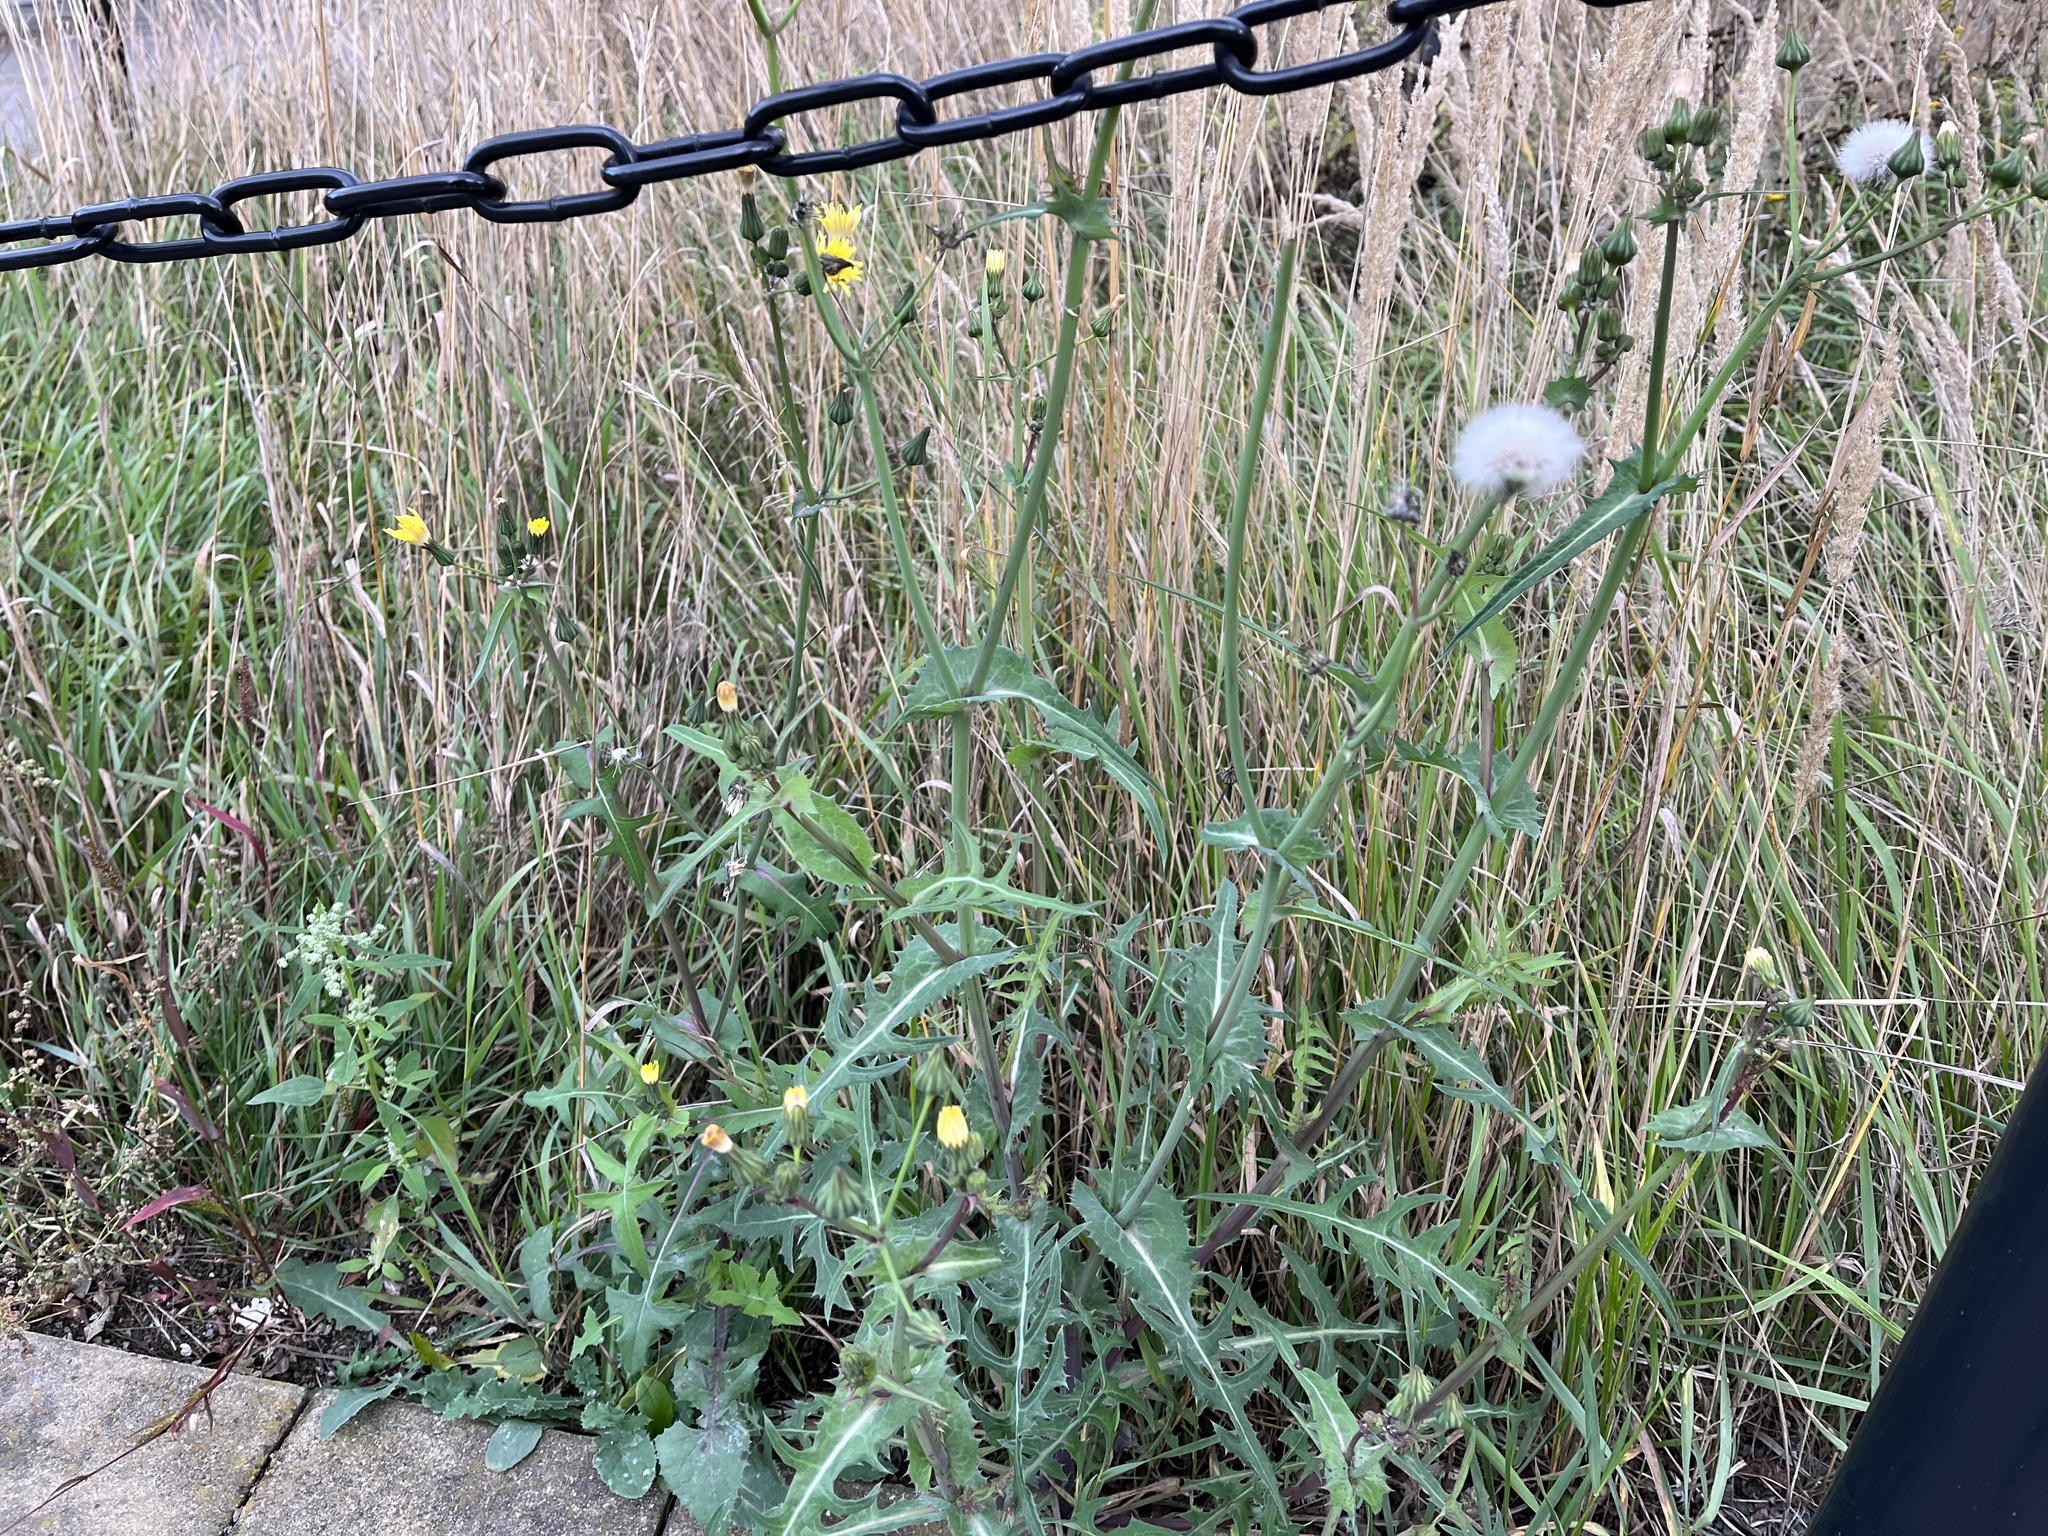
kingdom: Plantae
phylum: Tracheophyta
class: Magnoliopsida
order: Asterales
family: Asteraceae
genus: Sonchus
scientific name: Sonchus oleraceus
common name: Common sowthistle
